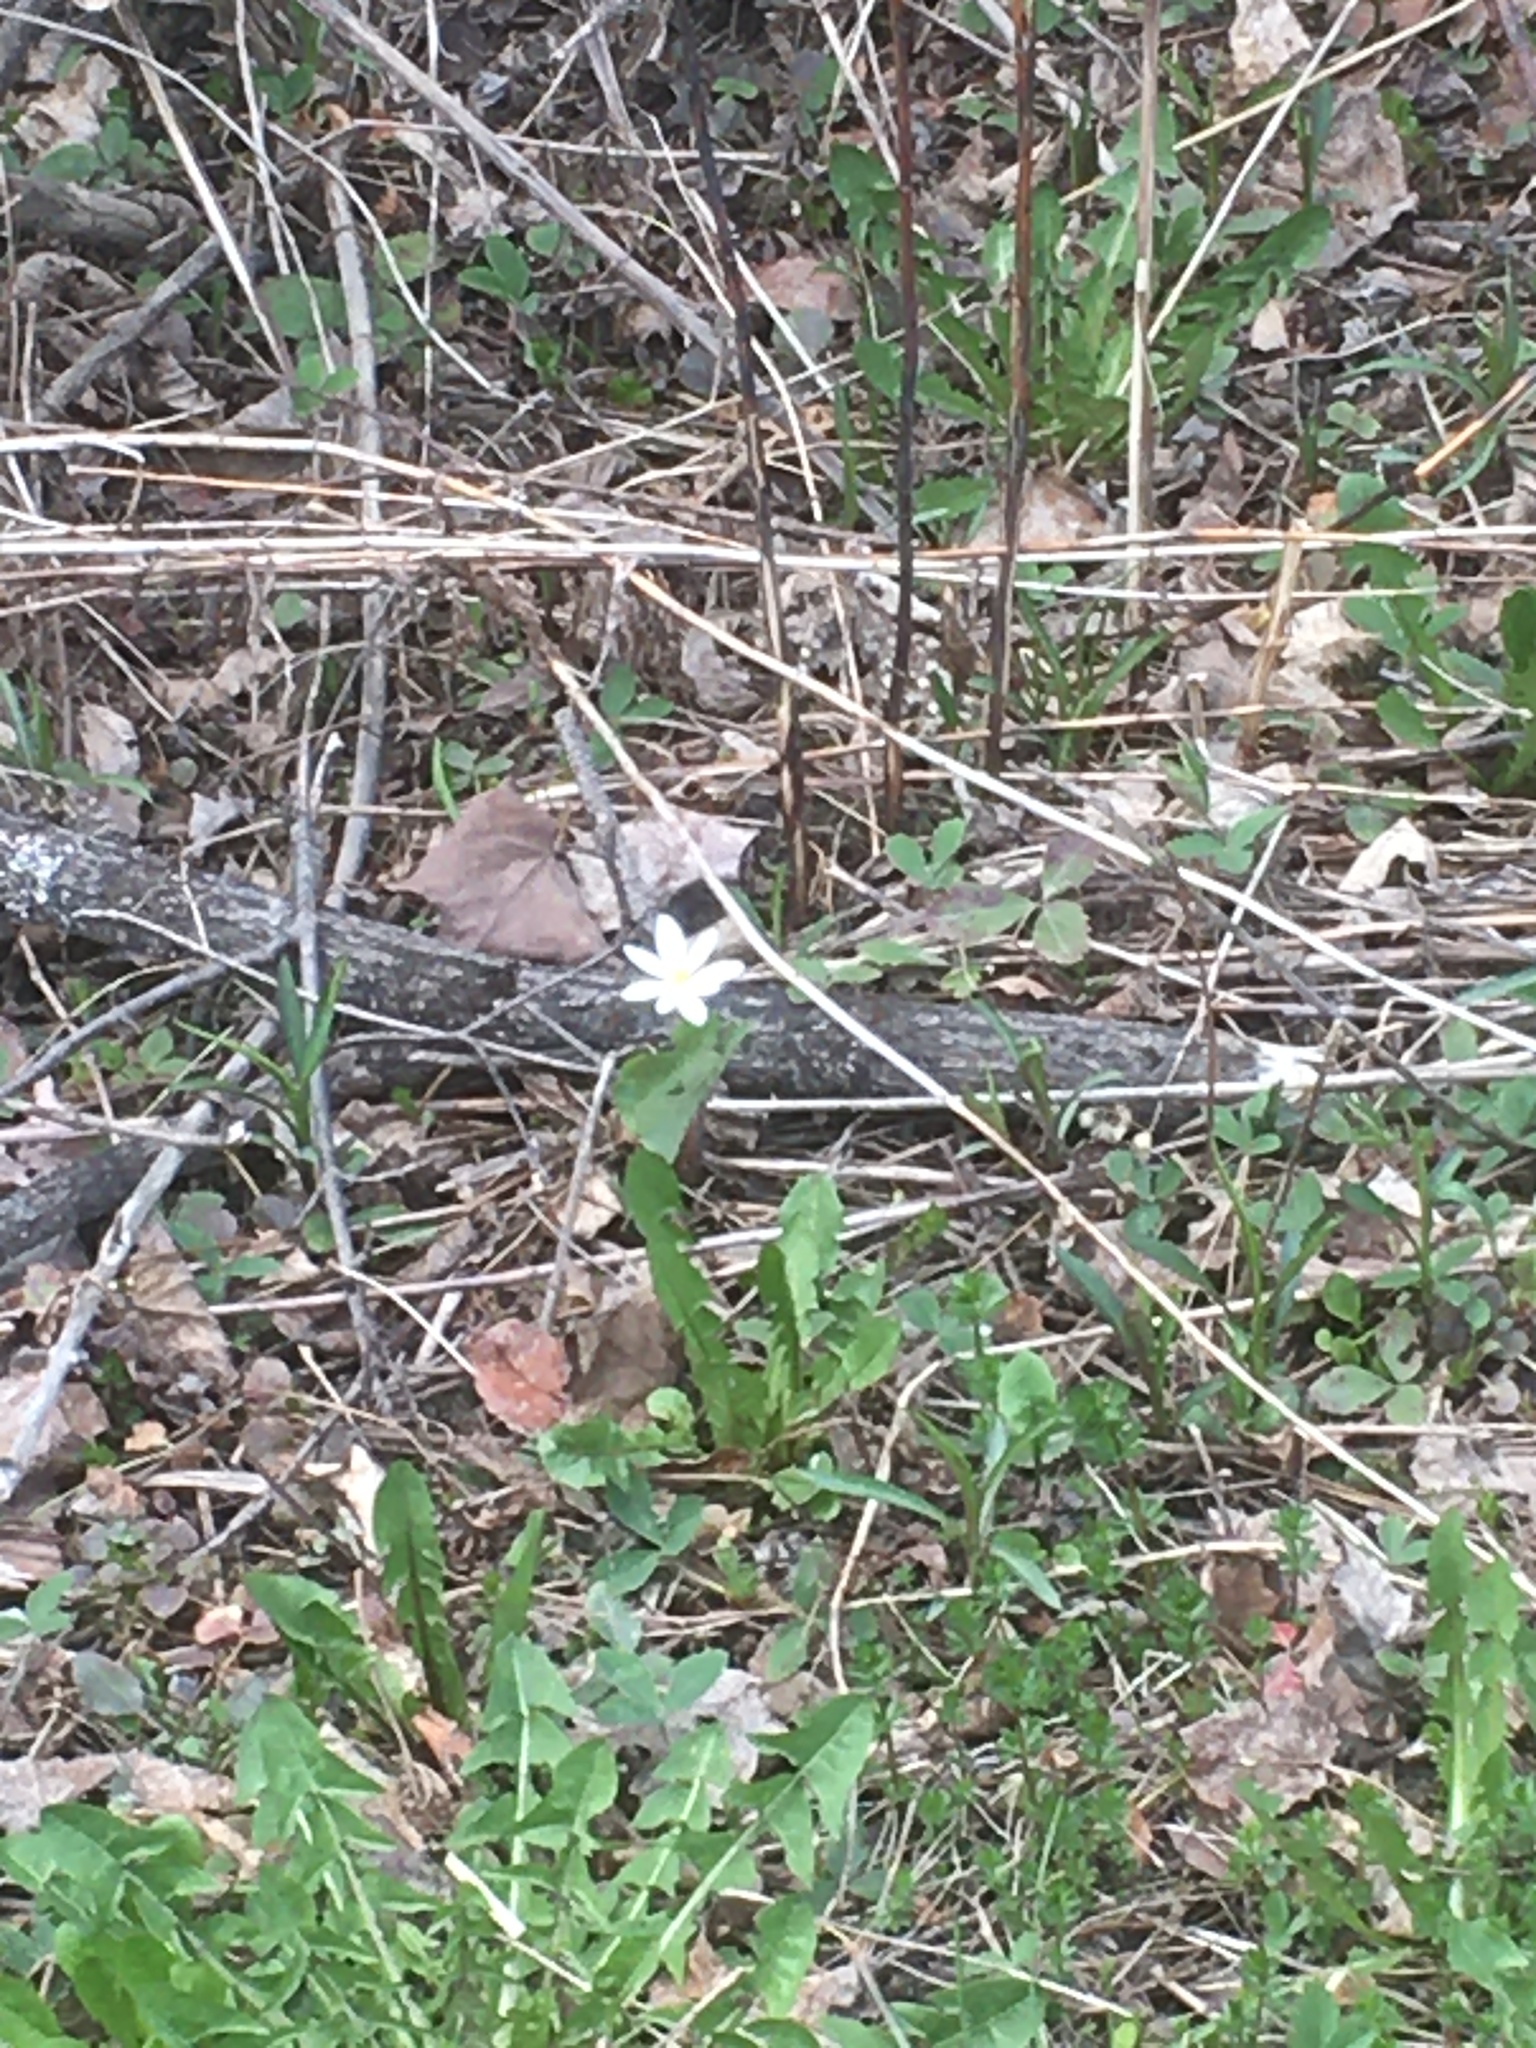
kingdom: Plantae
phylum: Tracheophyta
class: Magnoliopsida
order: Ranunculales
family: Papaveraceae
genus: Sanguinaria
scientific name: Sanguinaria canadensis
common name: Bloodroot
